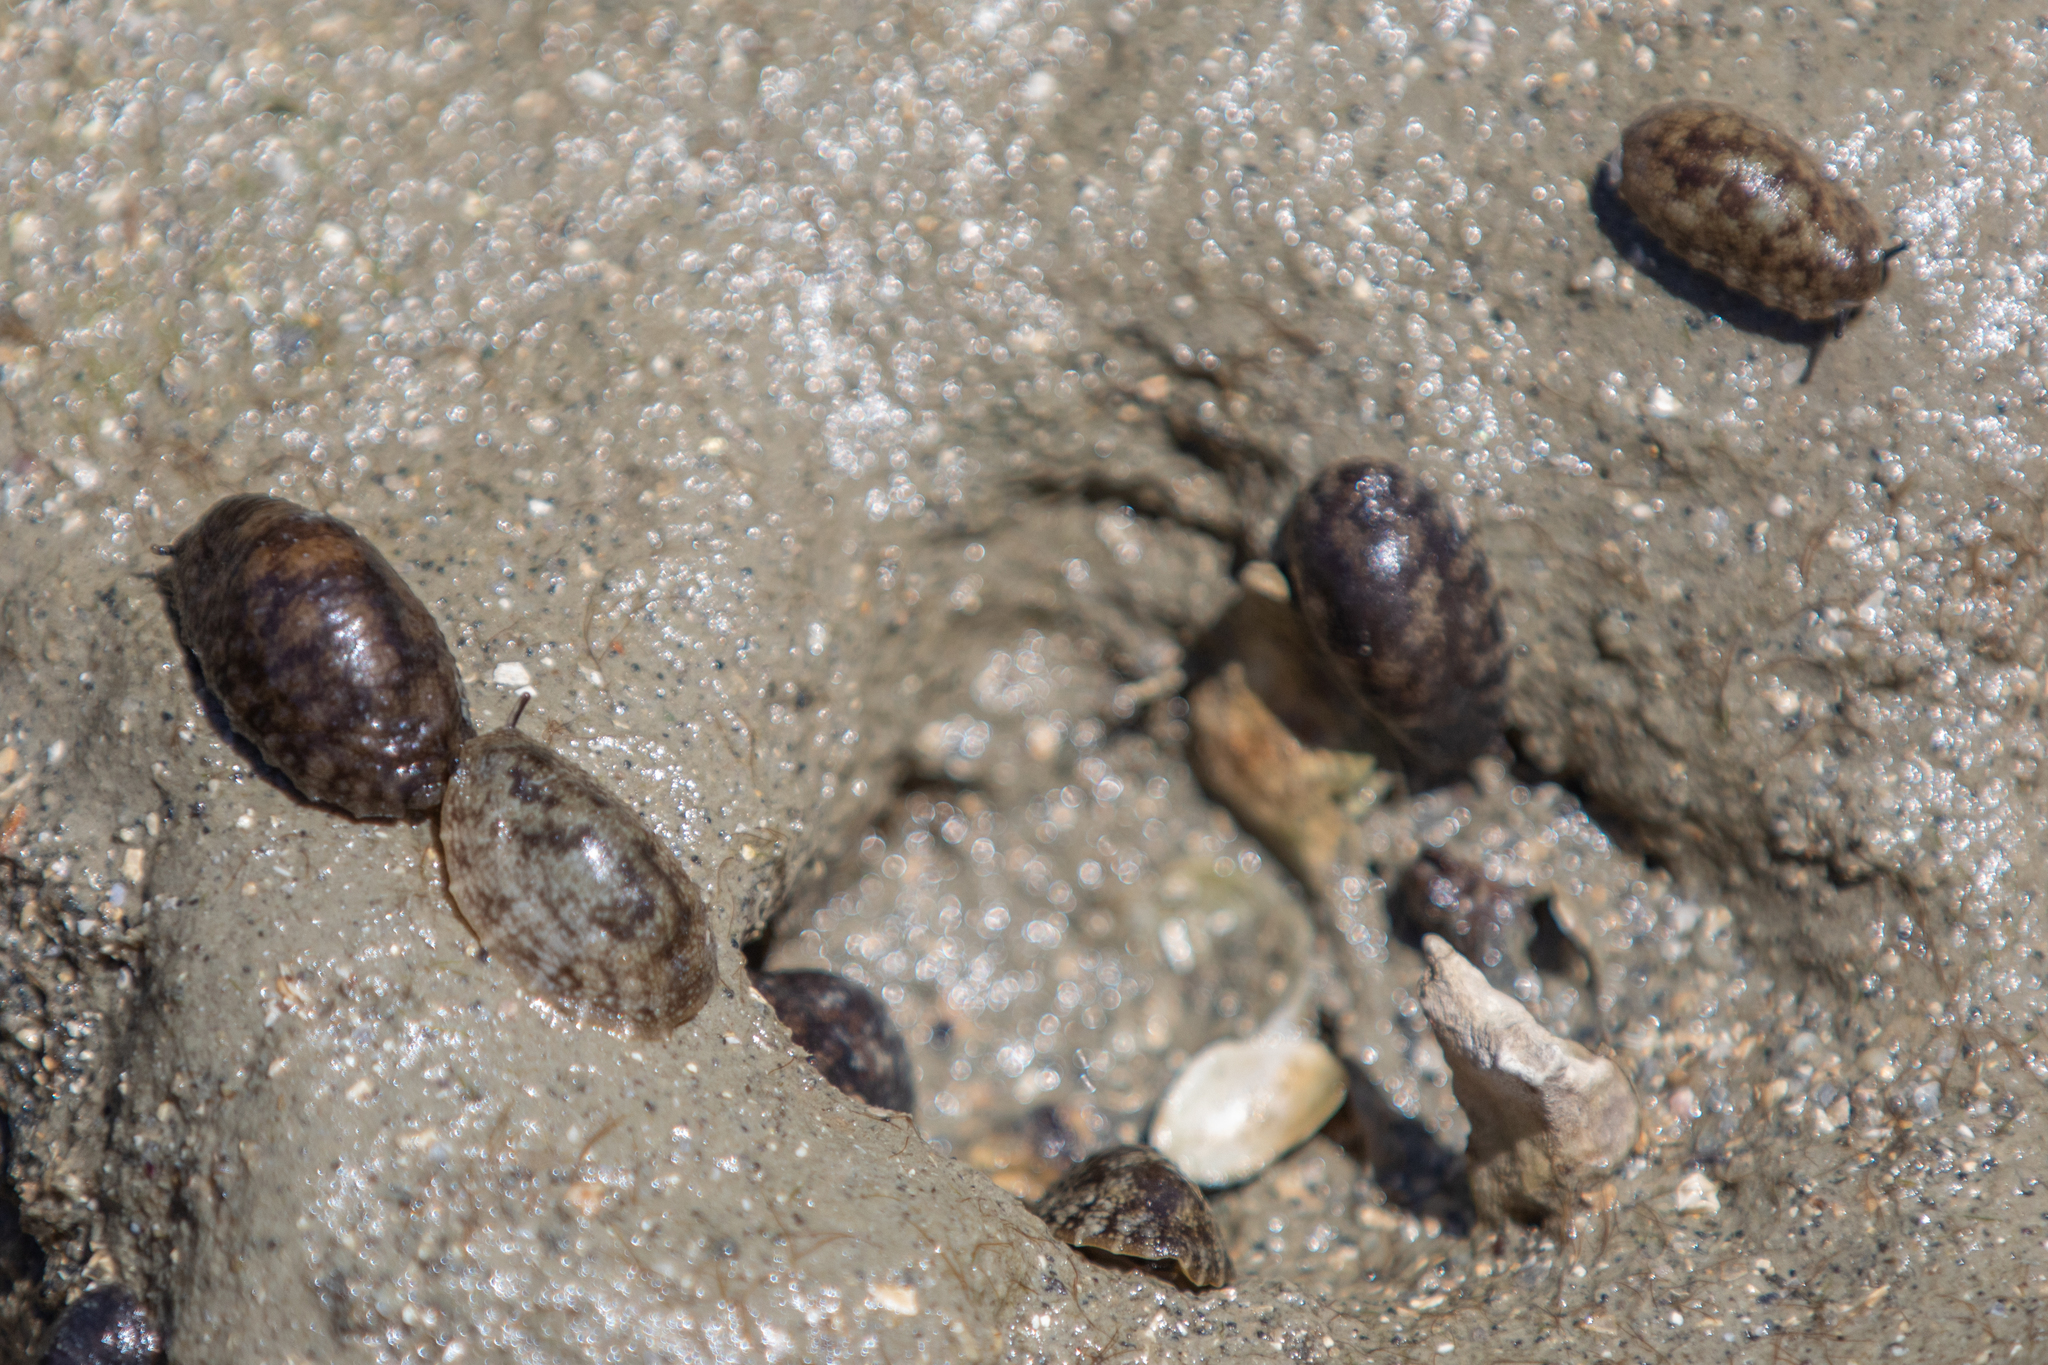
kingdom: Animalia
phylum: Mollusca
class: Gastropoda
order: Systellommatophora
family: Onchidiidae
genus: Onchidella
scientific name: Onchidella nigricans
